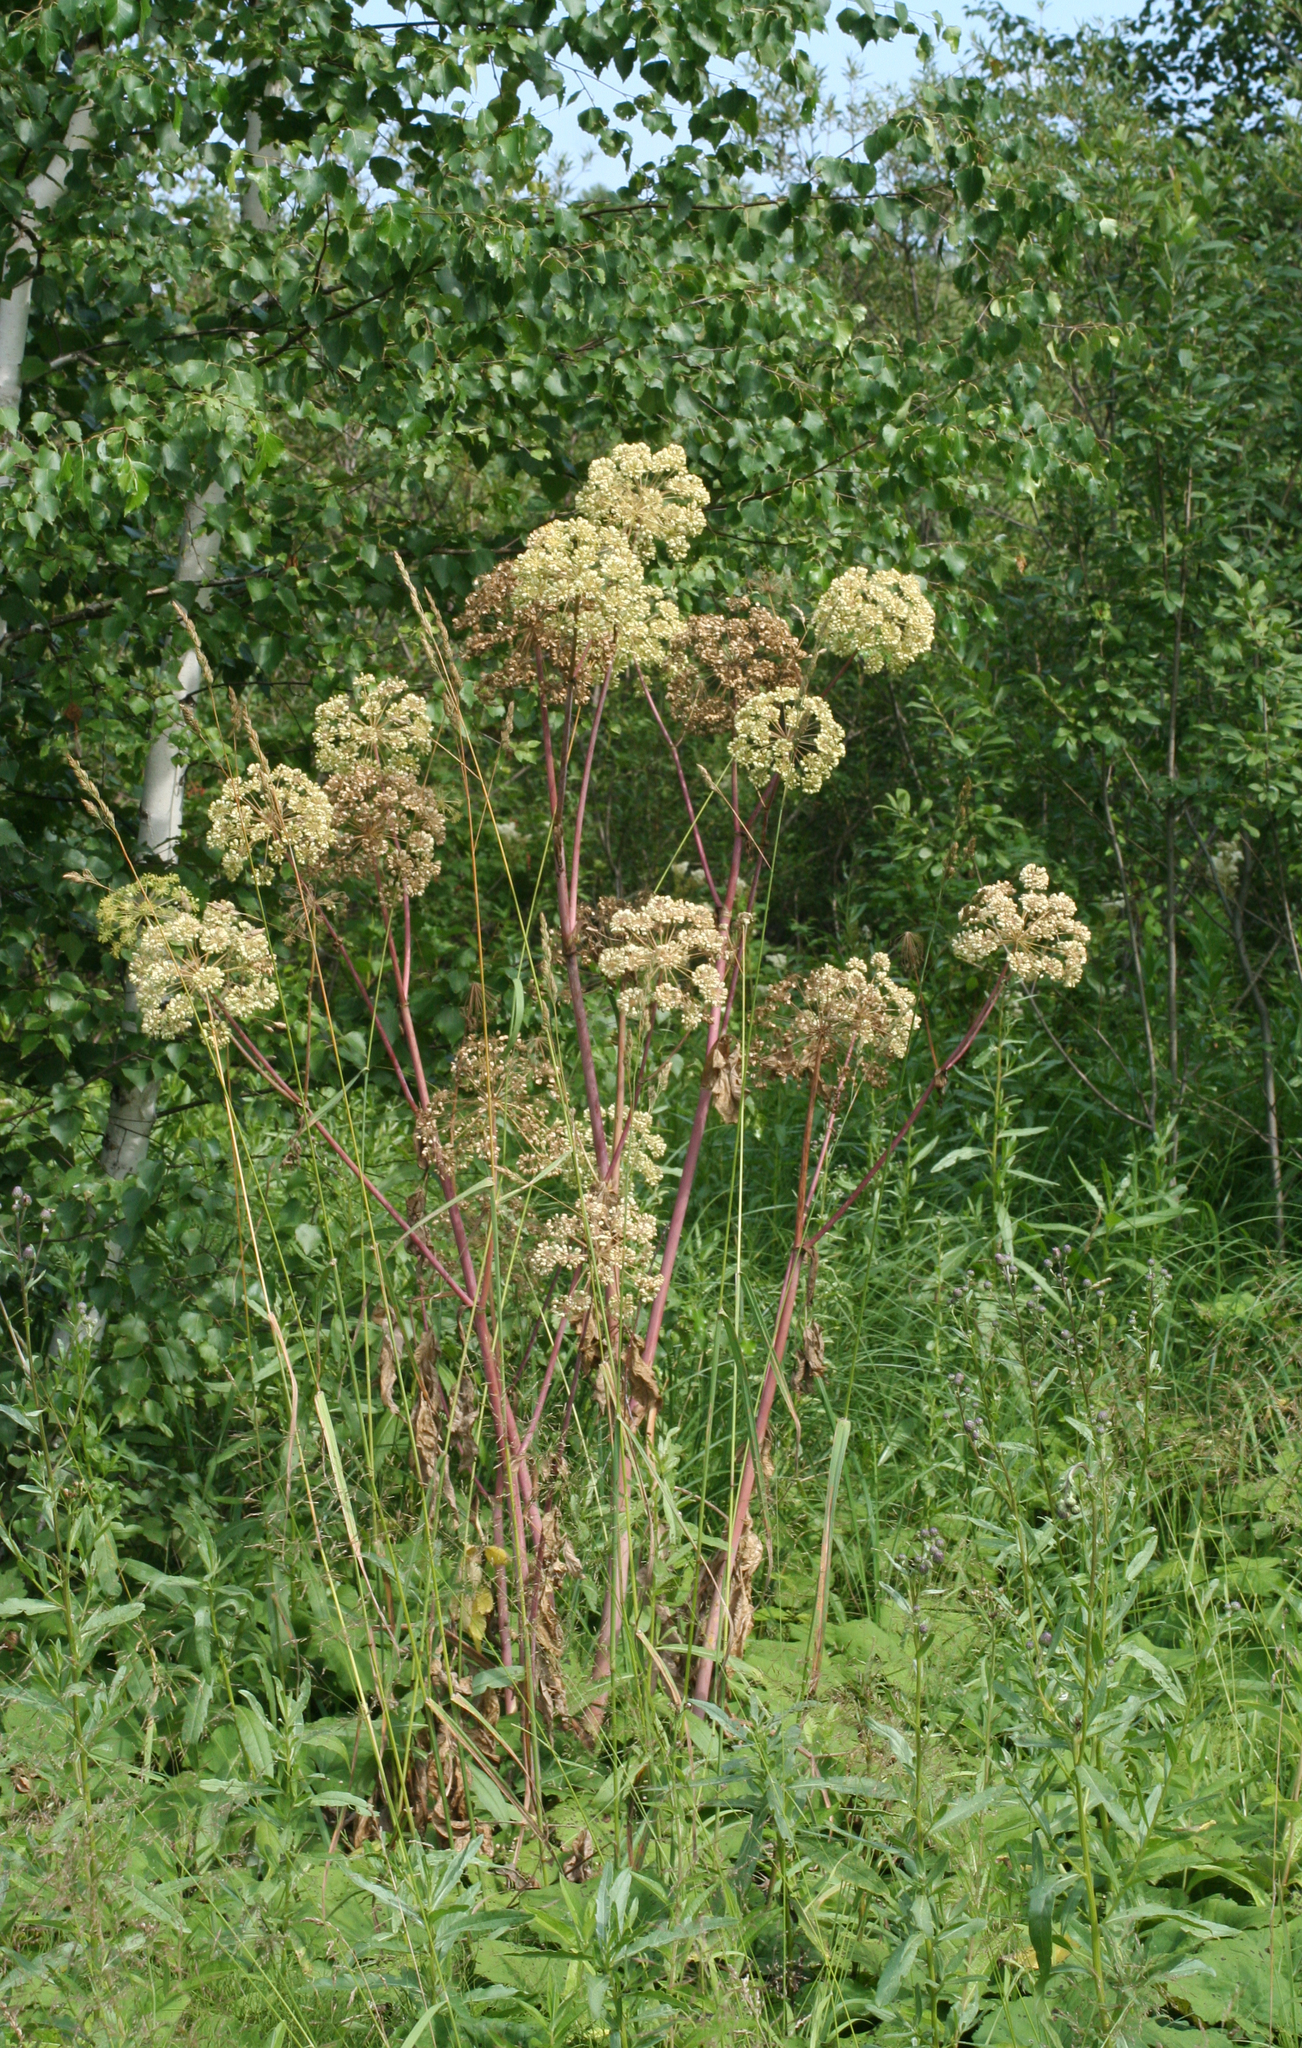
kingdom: Plantae
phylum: Tracheophyta
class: Magnoliopsida
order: Apiales
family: Apiaceae
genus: Angelica
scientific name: Angelica decurrens
